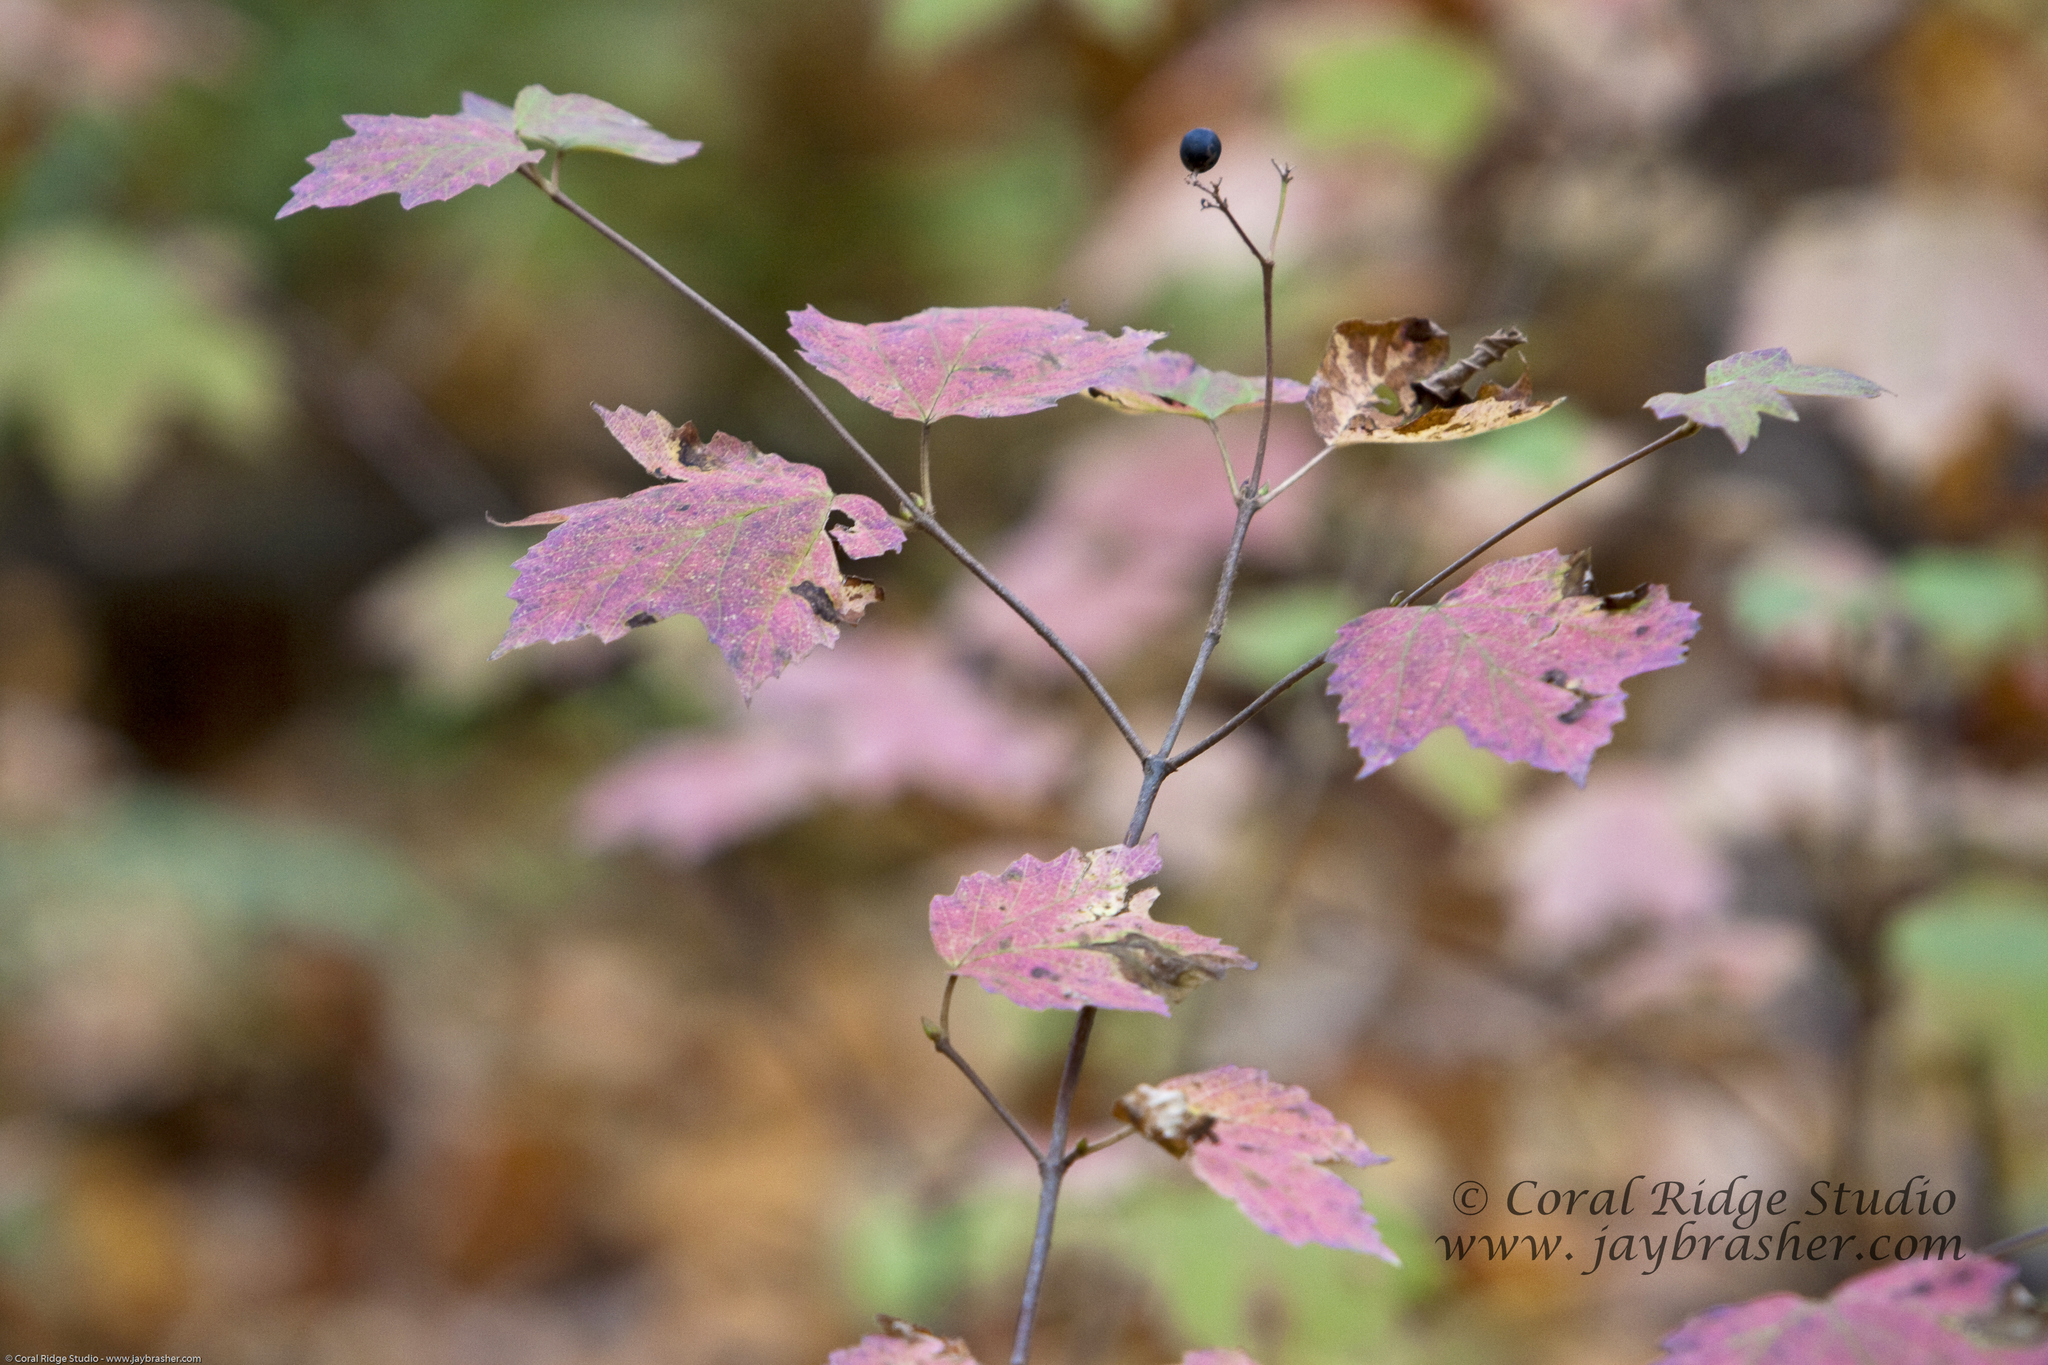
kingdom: Plantae
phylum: Tracheophyta
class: Magnoliopsida
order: Dipsacales
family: Viburnaceae
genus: Viburnum
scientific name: Viburnum acerifolium
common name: Dockmackie
